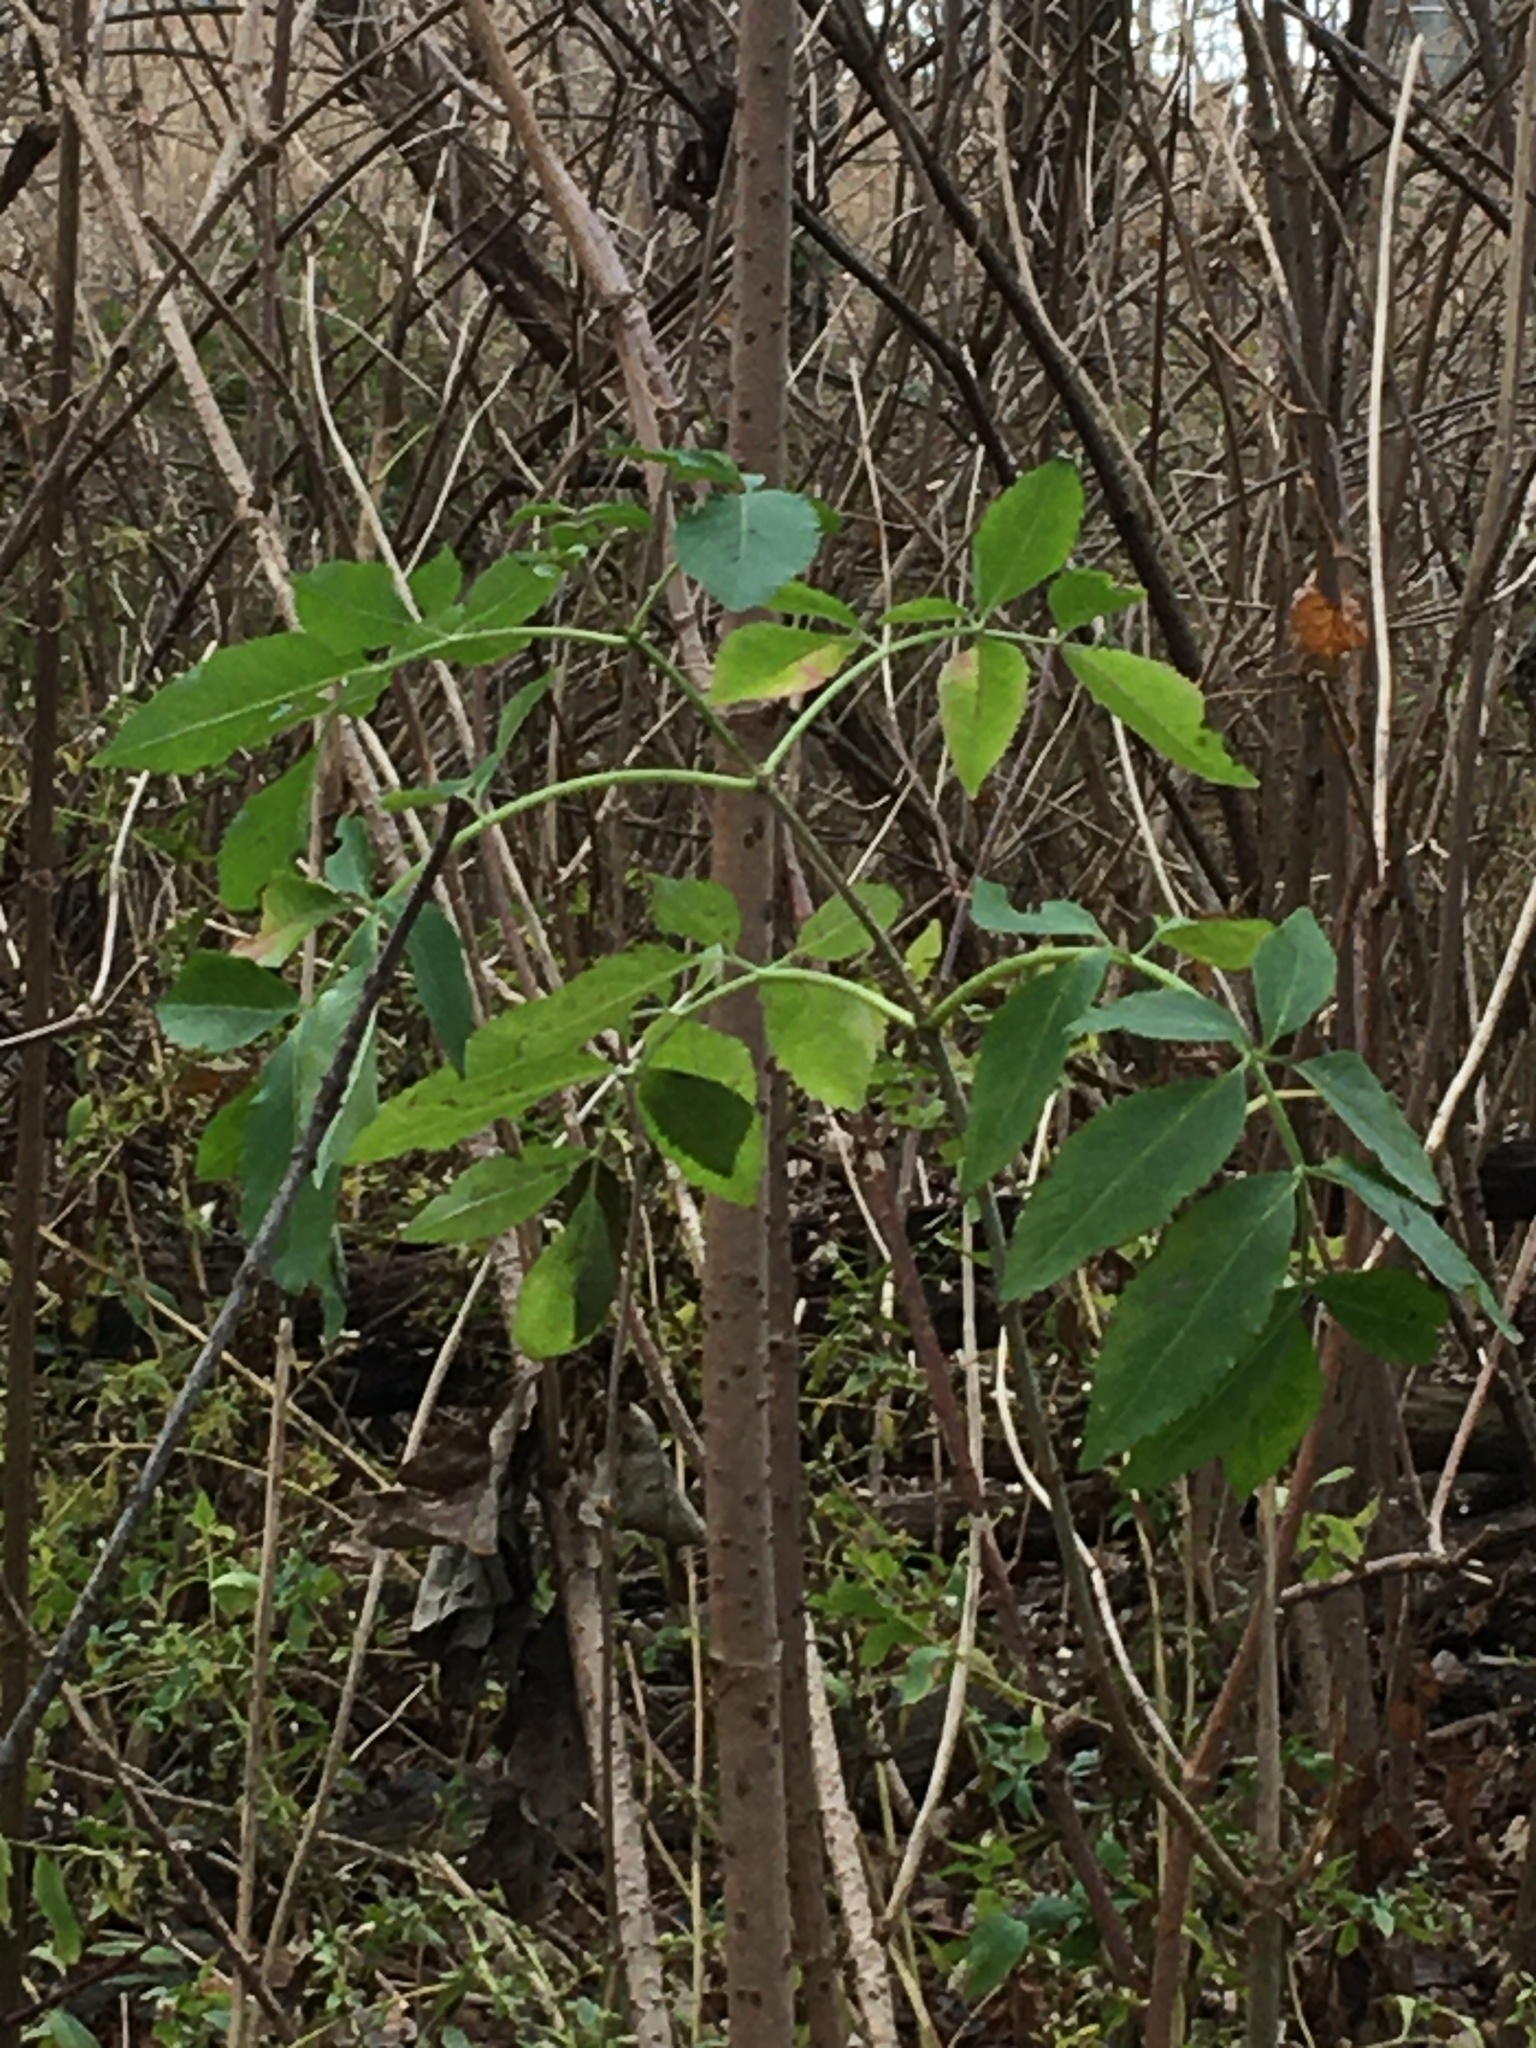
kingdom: Plantae
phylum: Tracheophyta
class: Magnoliopsida
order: Dipsacales
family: Viburnaceae
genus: Sambucus
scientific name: Sambucus canadensis
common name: American elder
